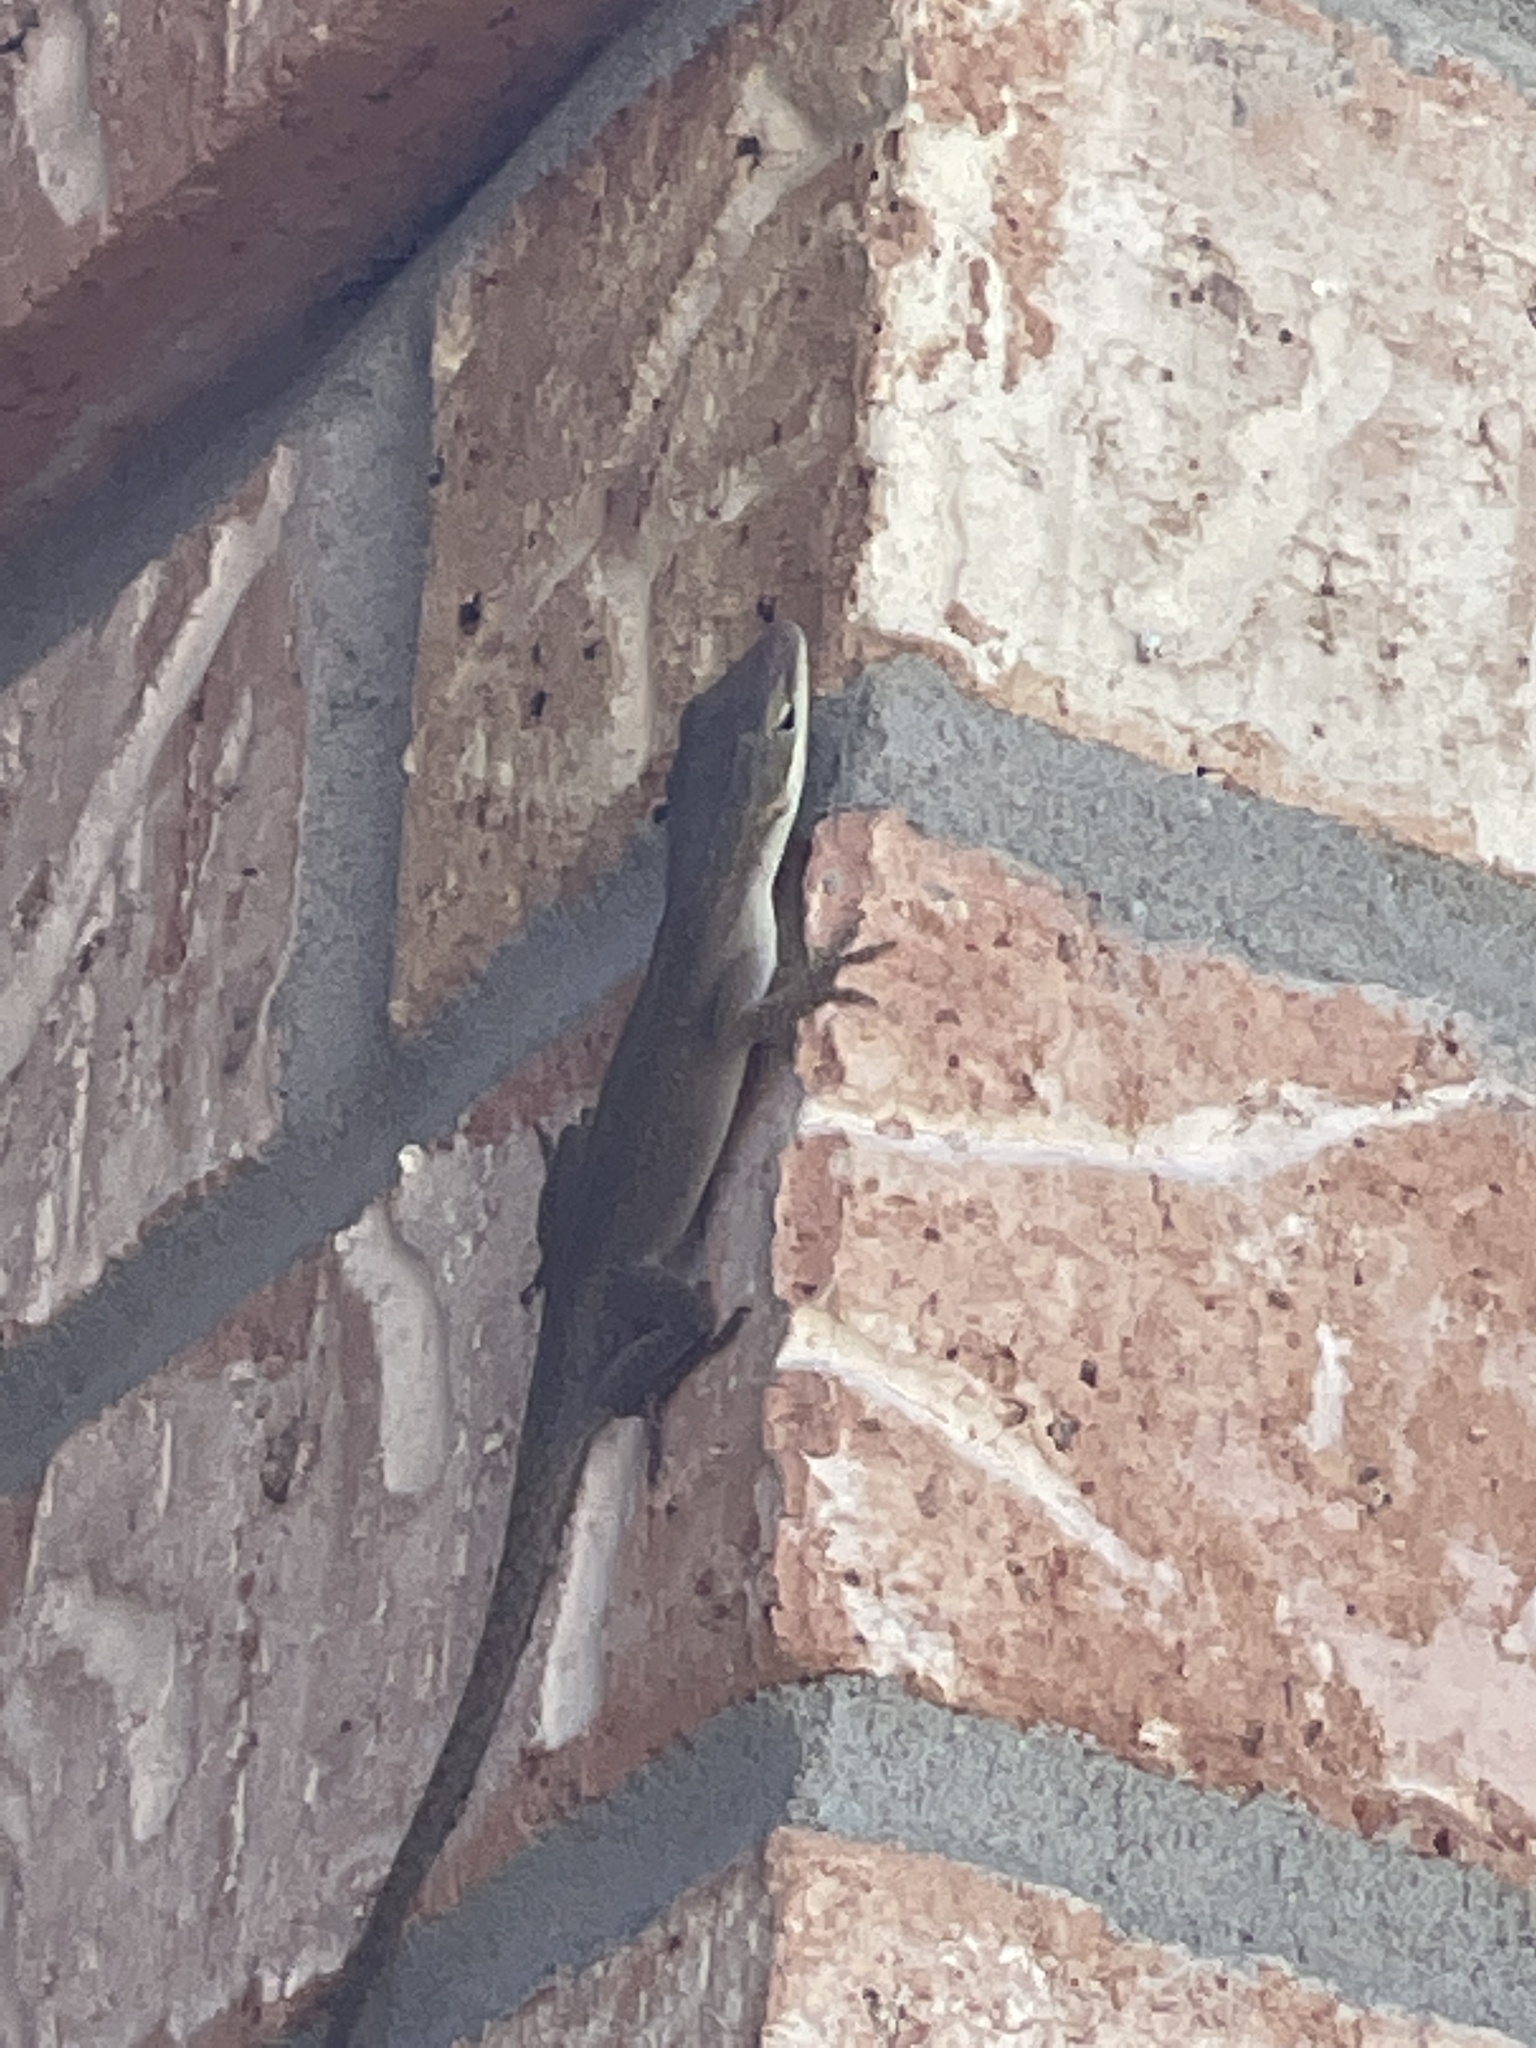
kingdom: Animalia
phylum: Chordata
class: Squamata
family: Dactyloidae
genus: Anolis
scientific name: Anolis carolinensis
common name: Green anole
